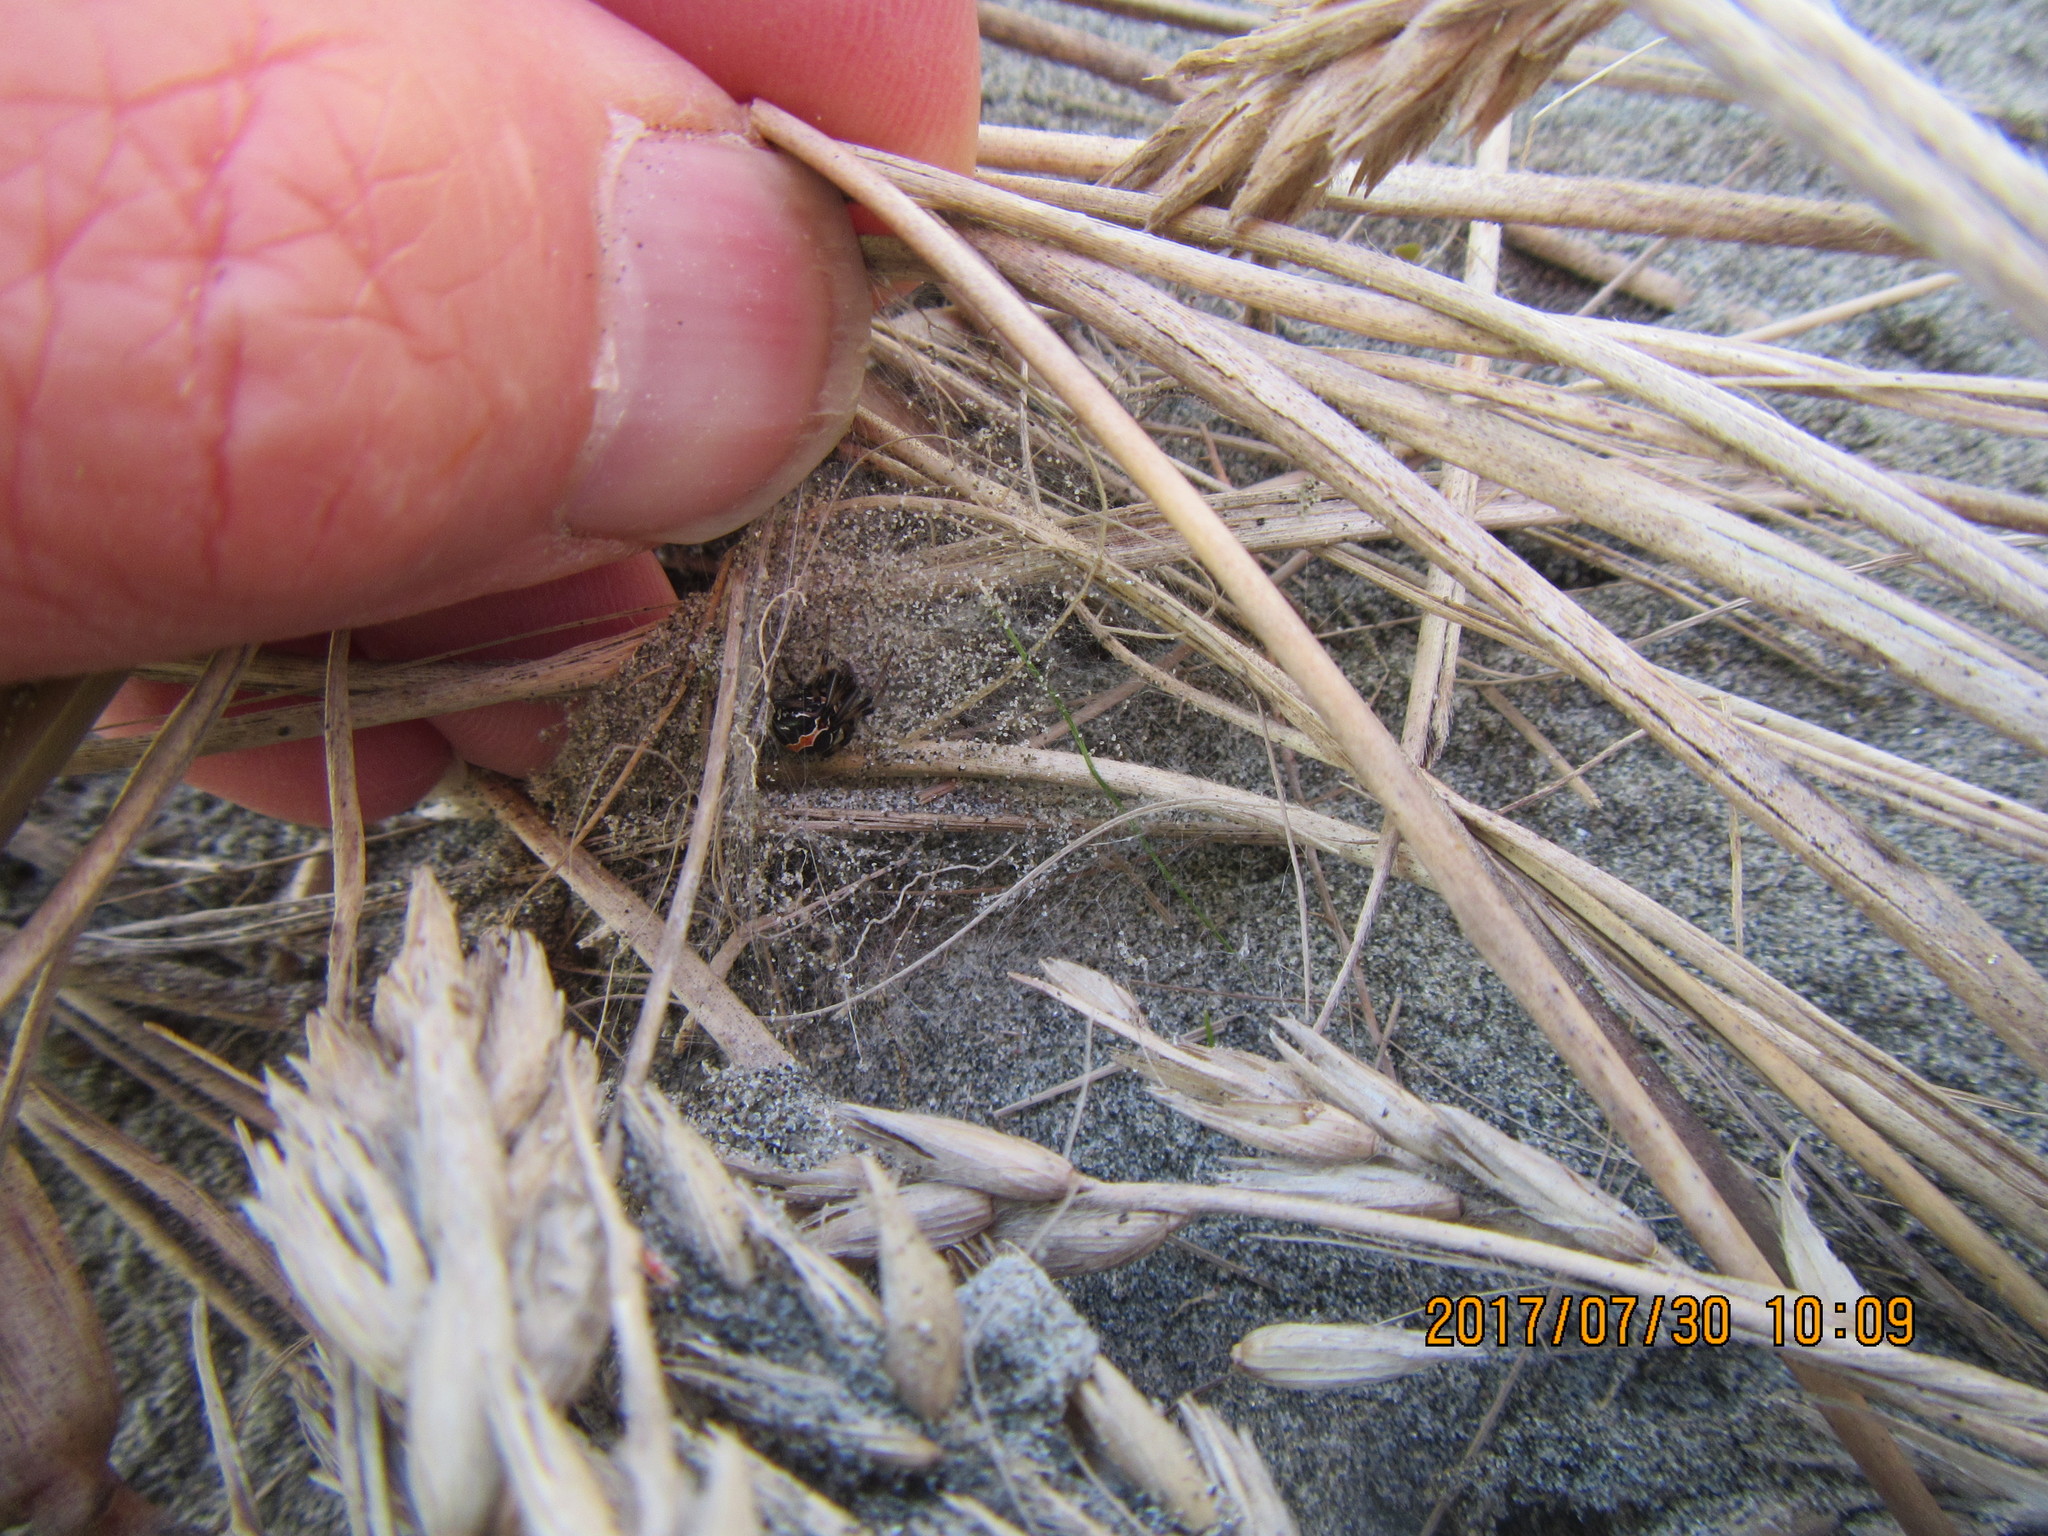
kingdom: Animalia
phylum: Arthropoda
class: Arachnida
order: Araneae
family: Theridiidae
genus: Latrodectus
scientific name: Latrodectus katipo
